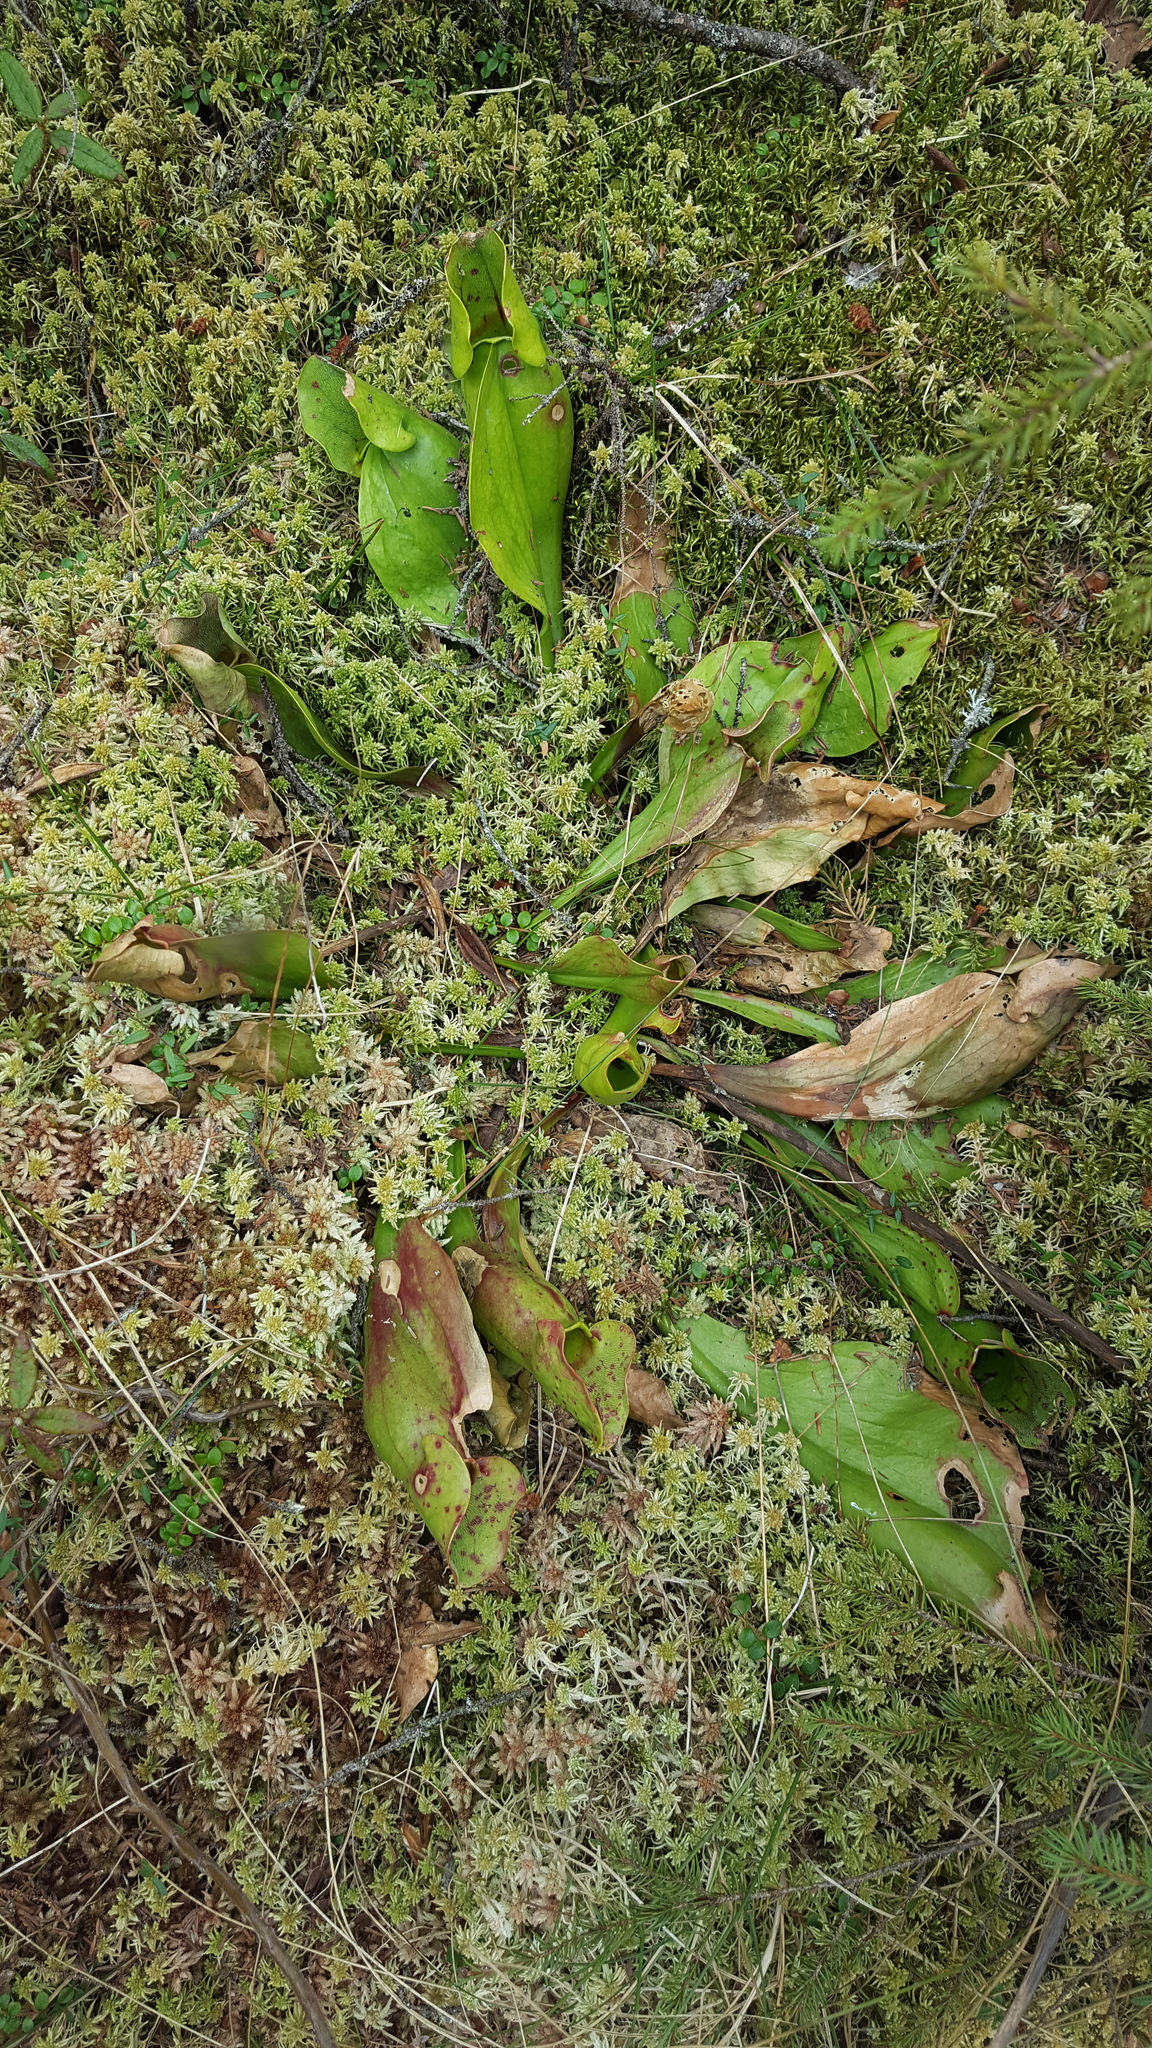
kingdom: Plantae
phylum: Tracheophyta
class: Magnoliopsida
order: Ericales
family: Sarraceniaceae
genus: Sarracenia
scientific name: Sarracenia purpurea
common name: Pitcherplant
